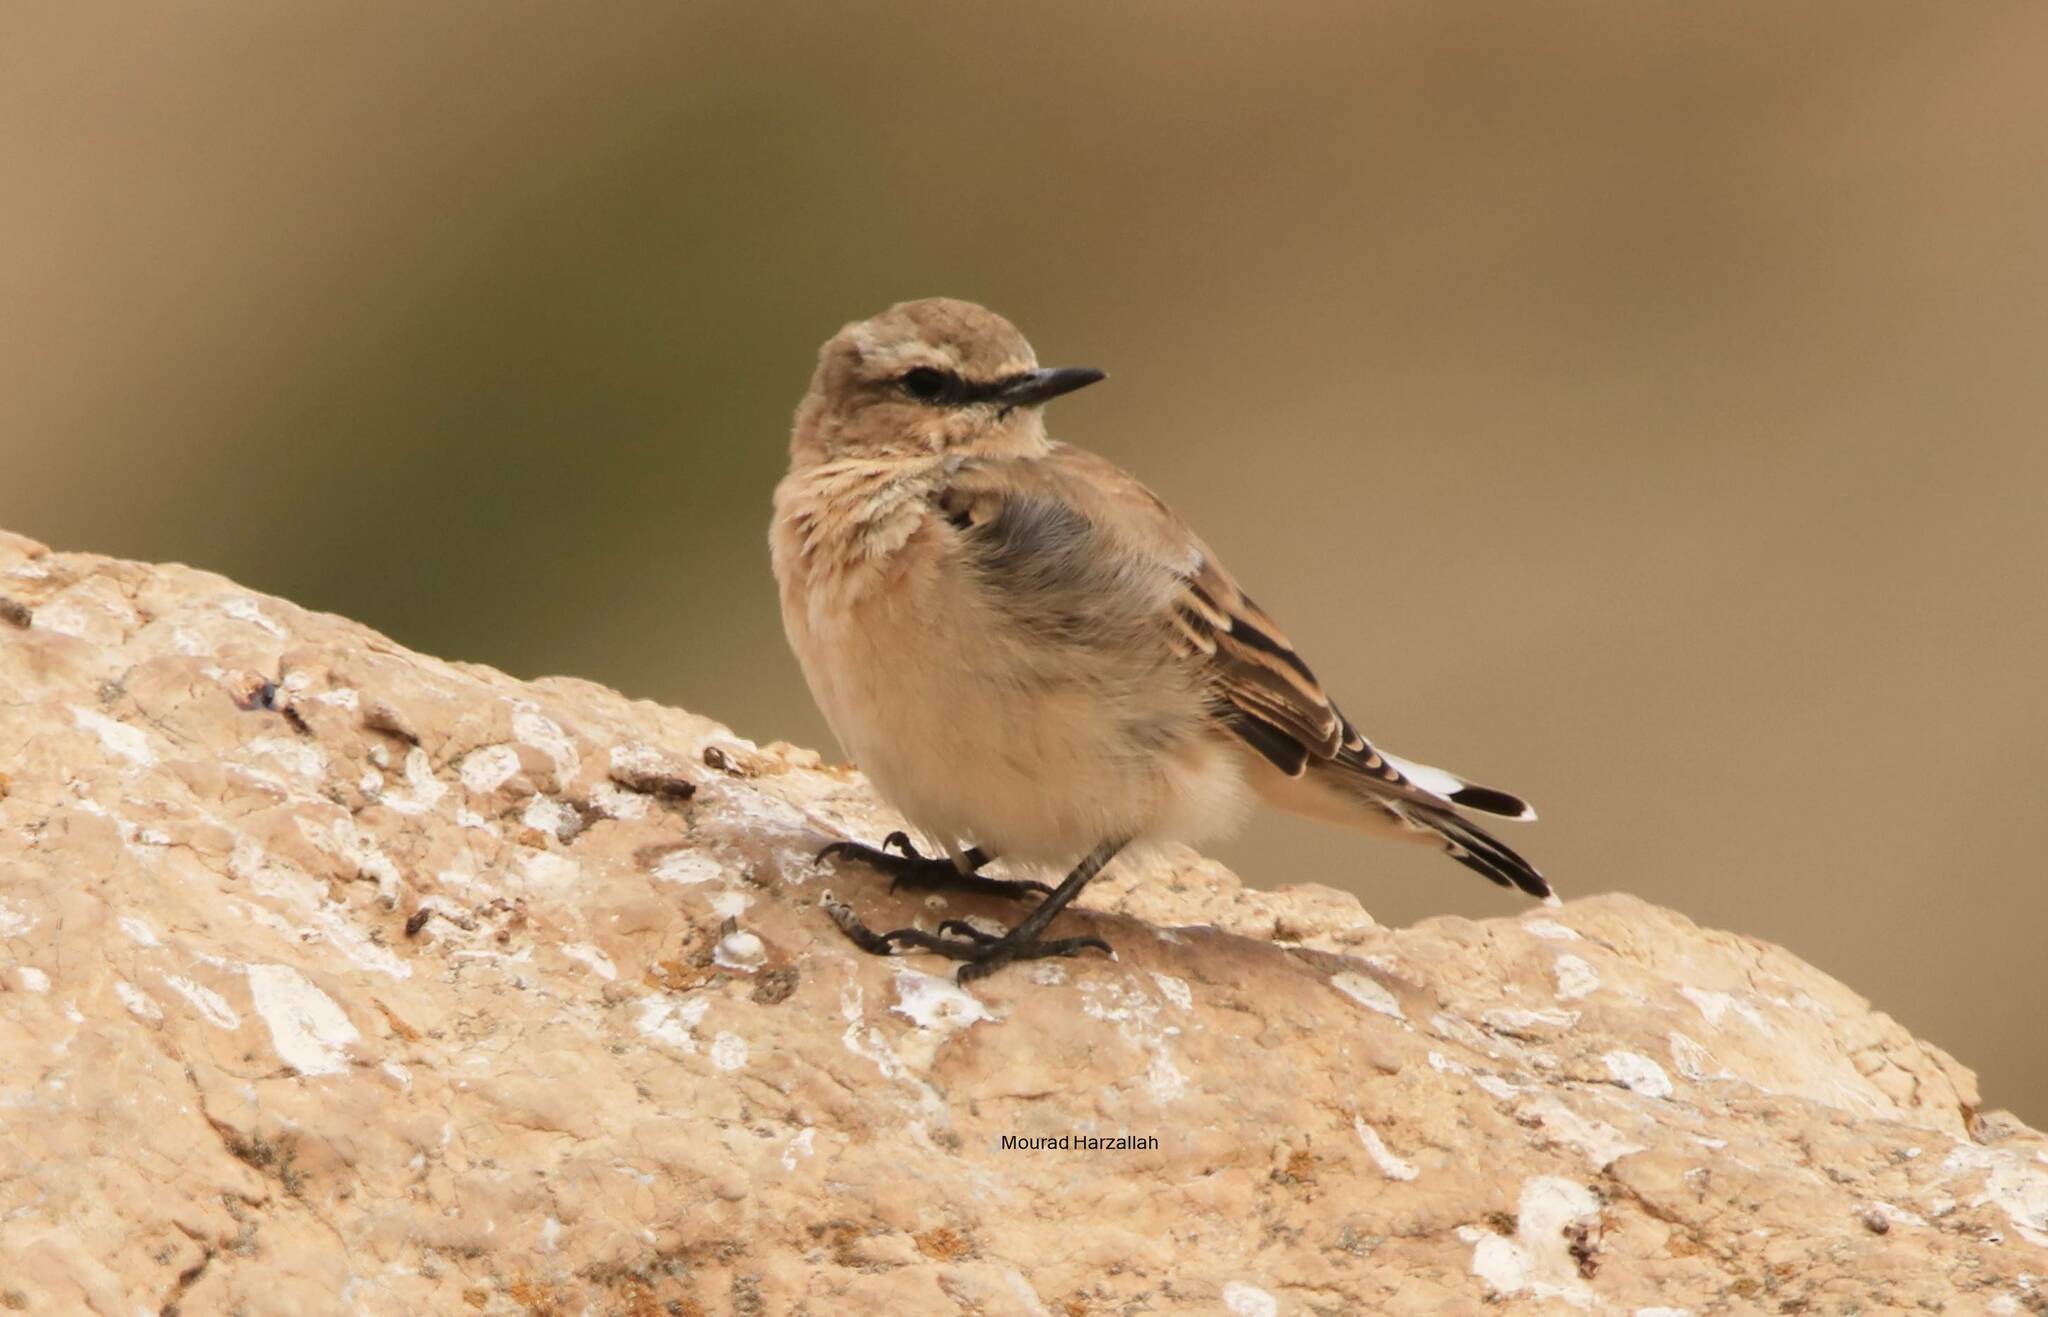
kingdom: Animalia
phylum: Chordata
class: Aves
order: Passeriformes
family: Muscicapidae
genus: Oenanthe
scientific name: Oenanthe oenanthe
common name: Northern wheatear
